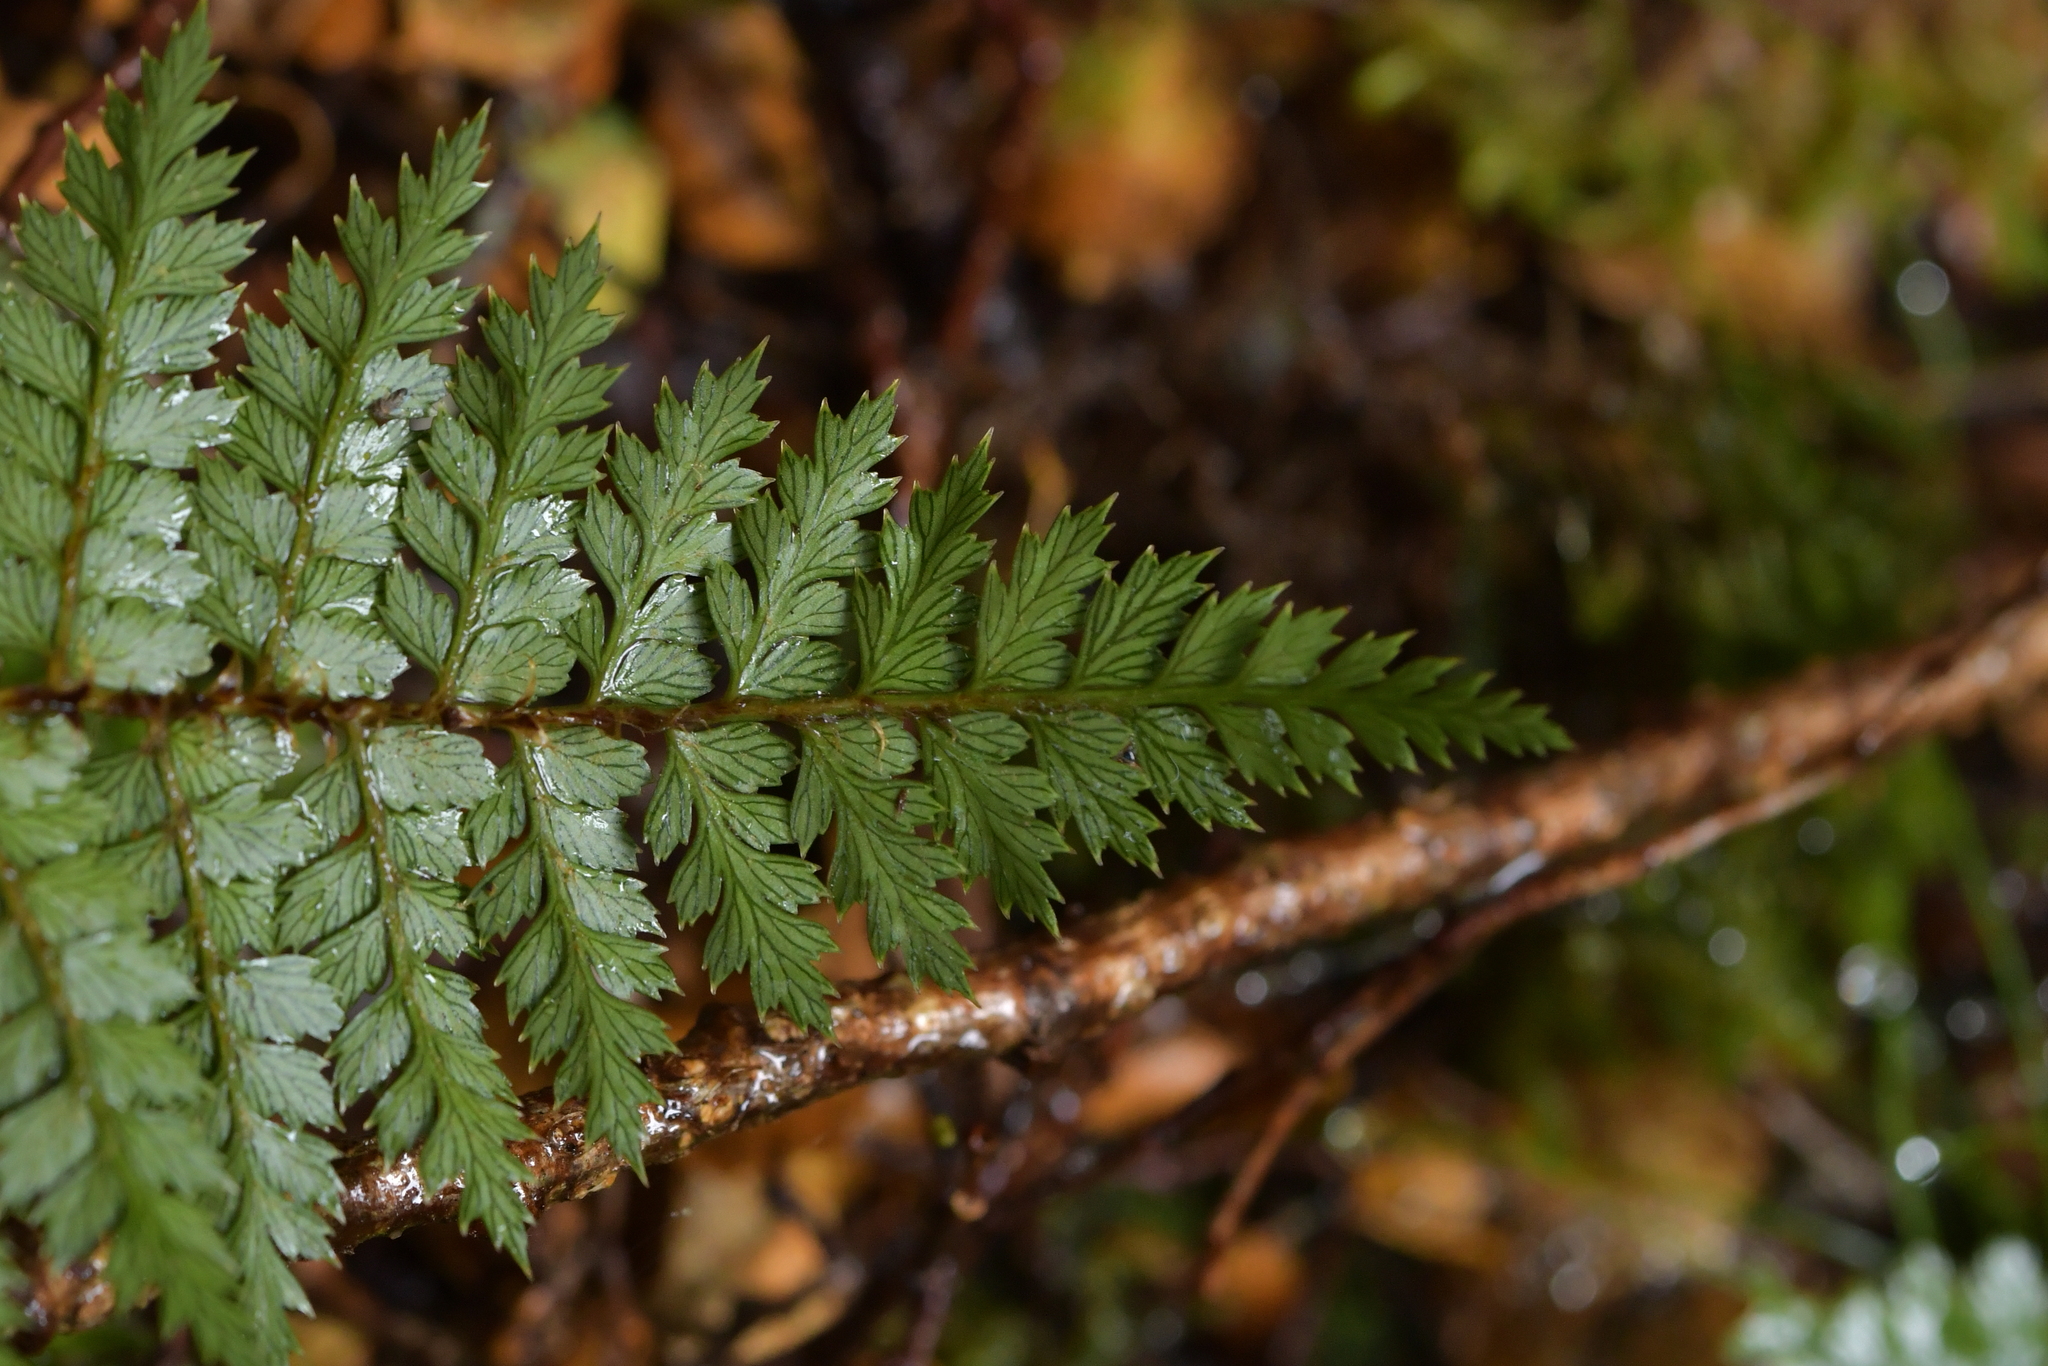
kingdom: Plantae
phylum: Tracheophyta
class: Polypodiopsida
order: Polypodiales
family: Dryopteridaceae
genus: Polystichum
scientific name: Polystichum vestitum
